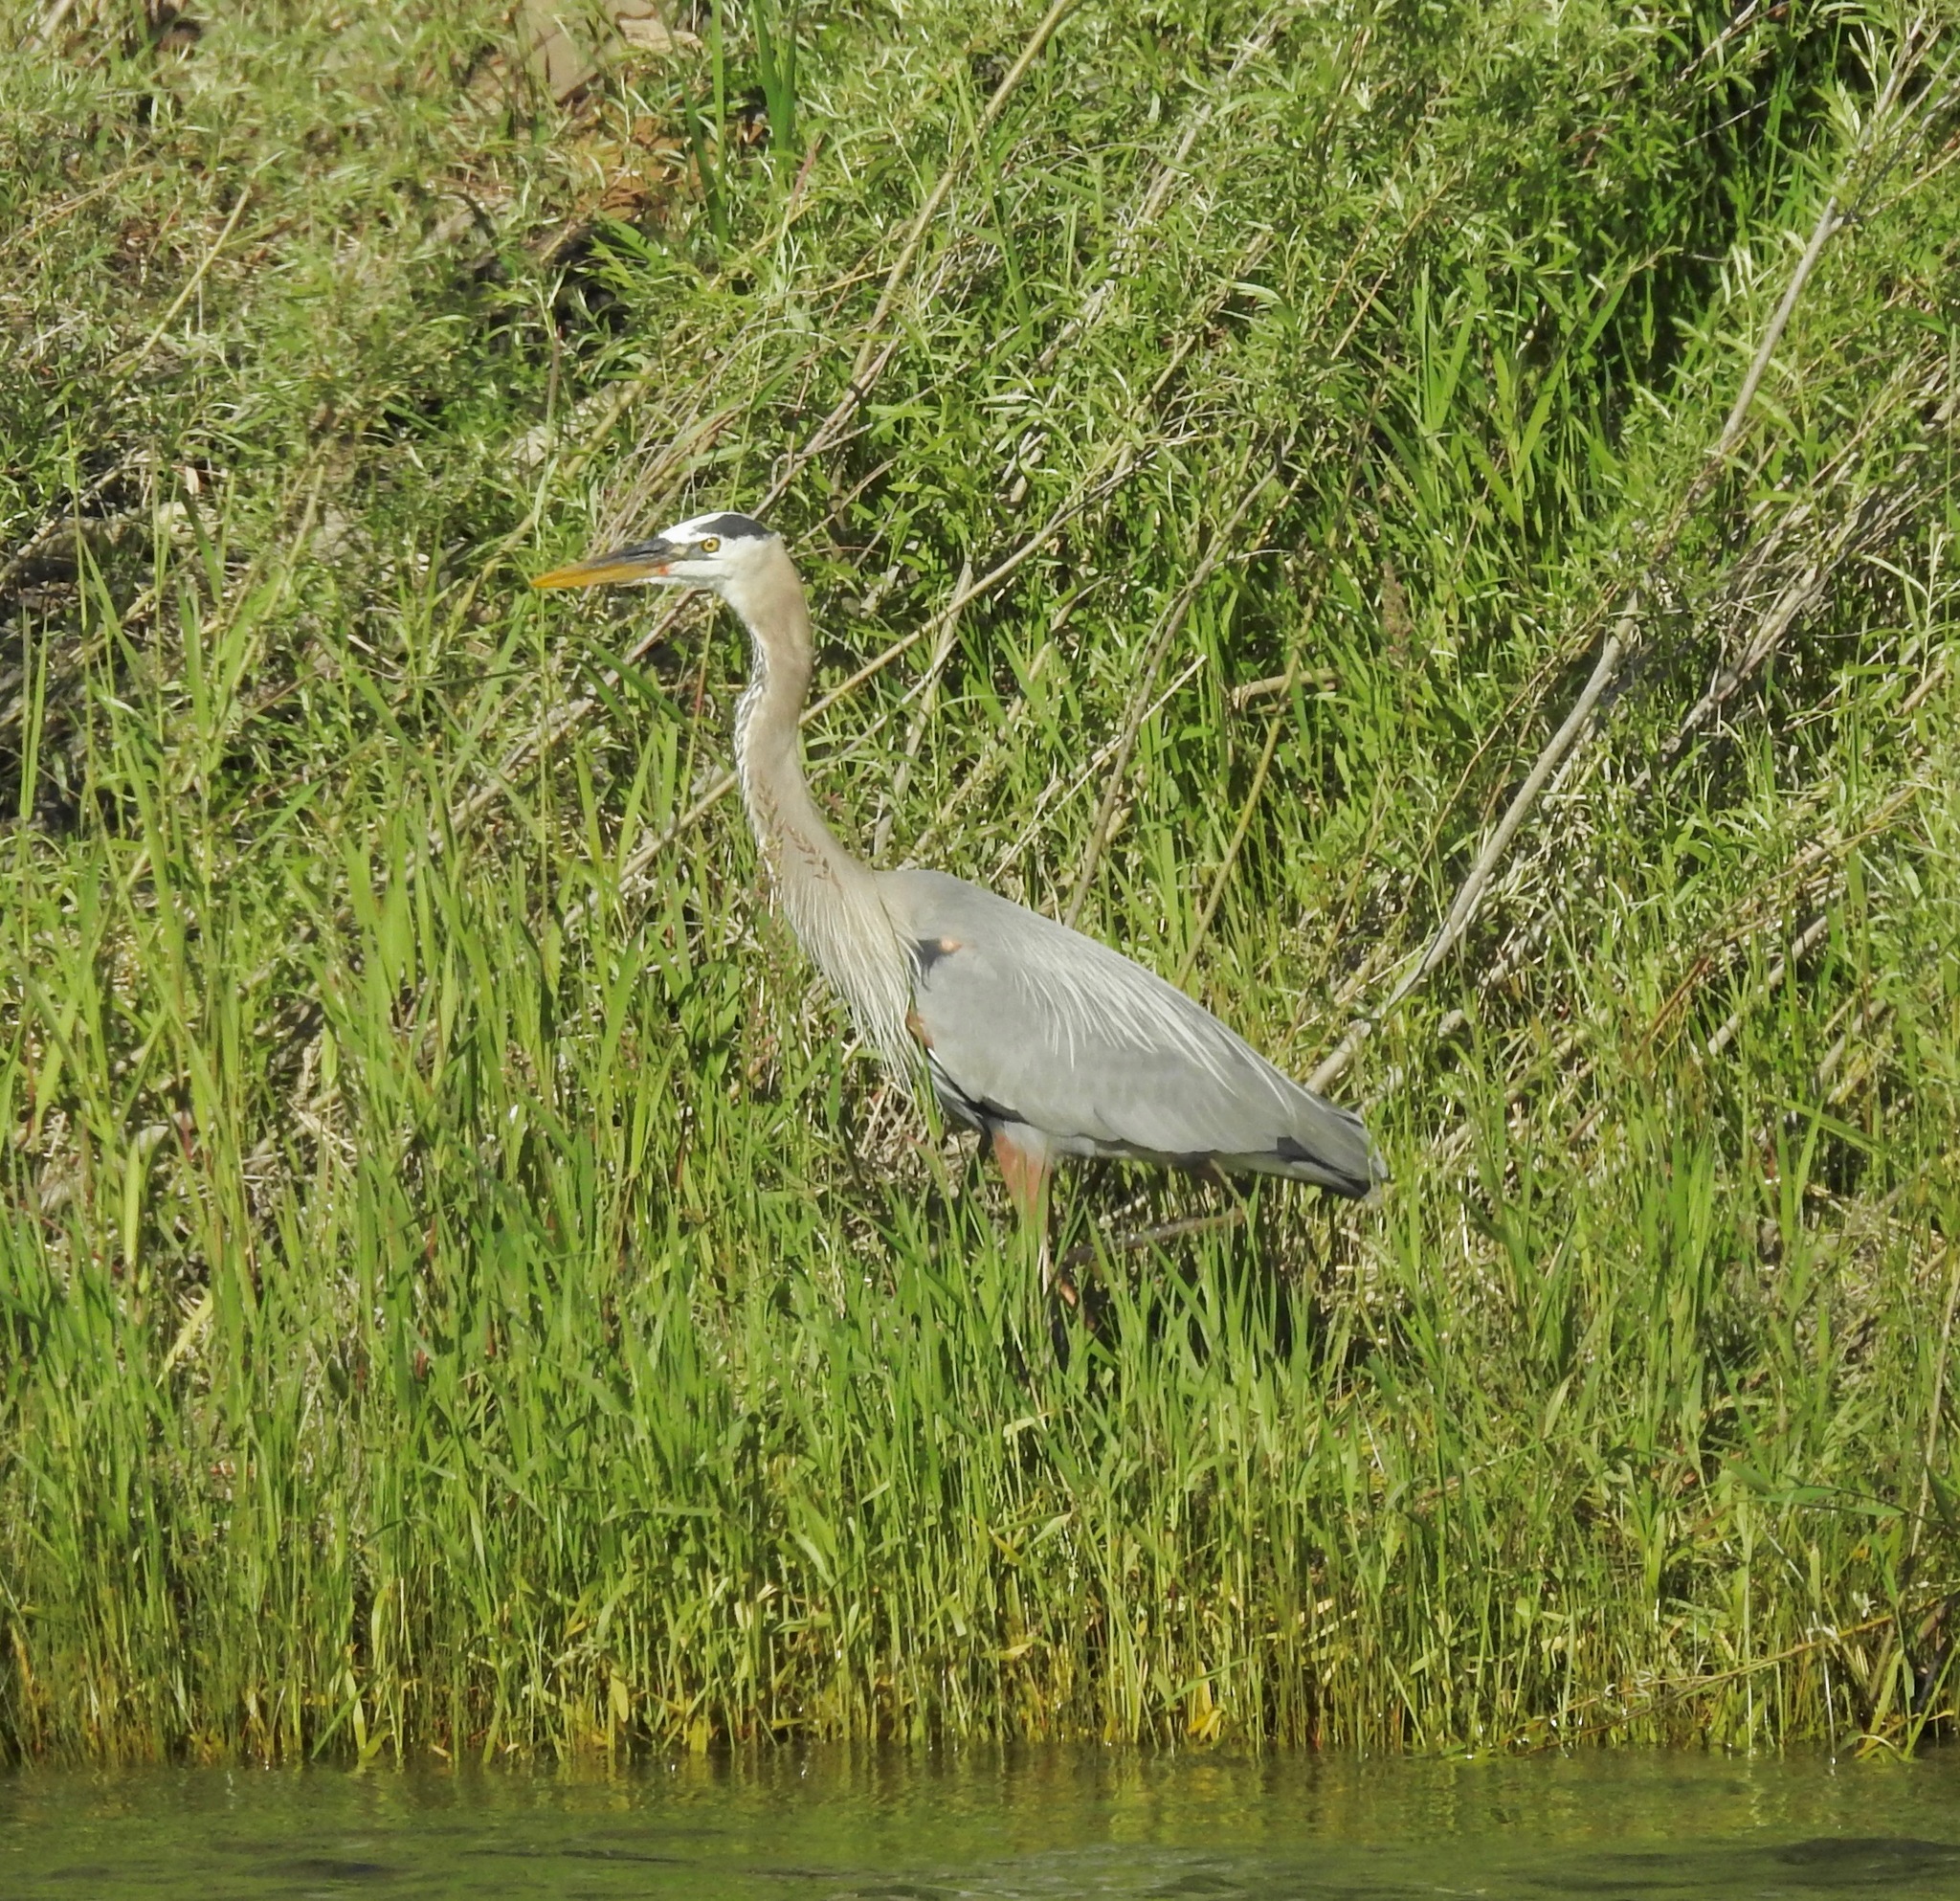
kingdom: Animalia
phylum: Chordata
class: Aves
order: Pelecaniformes
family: Ardeidae
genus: Ardea
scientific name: Ardea herodias
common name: Great blue heron
